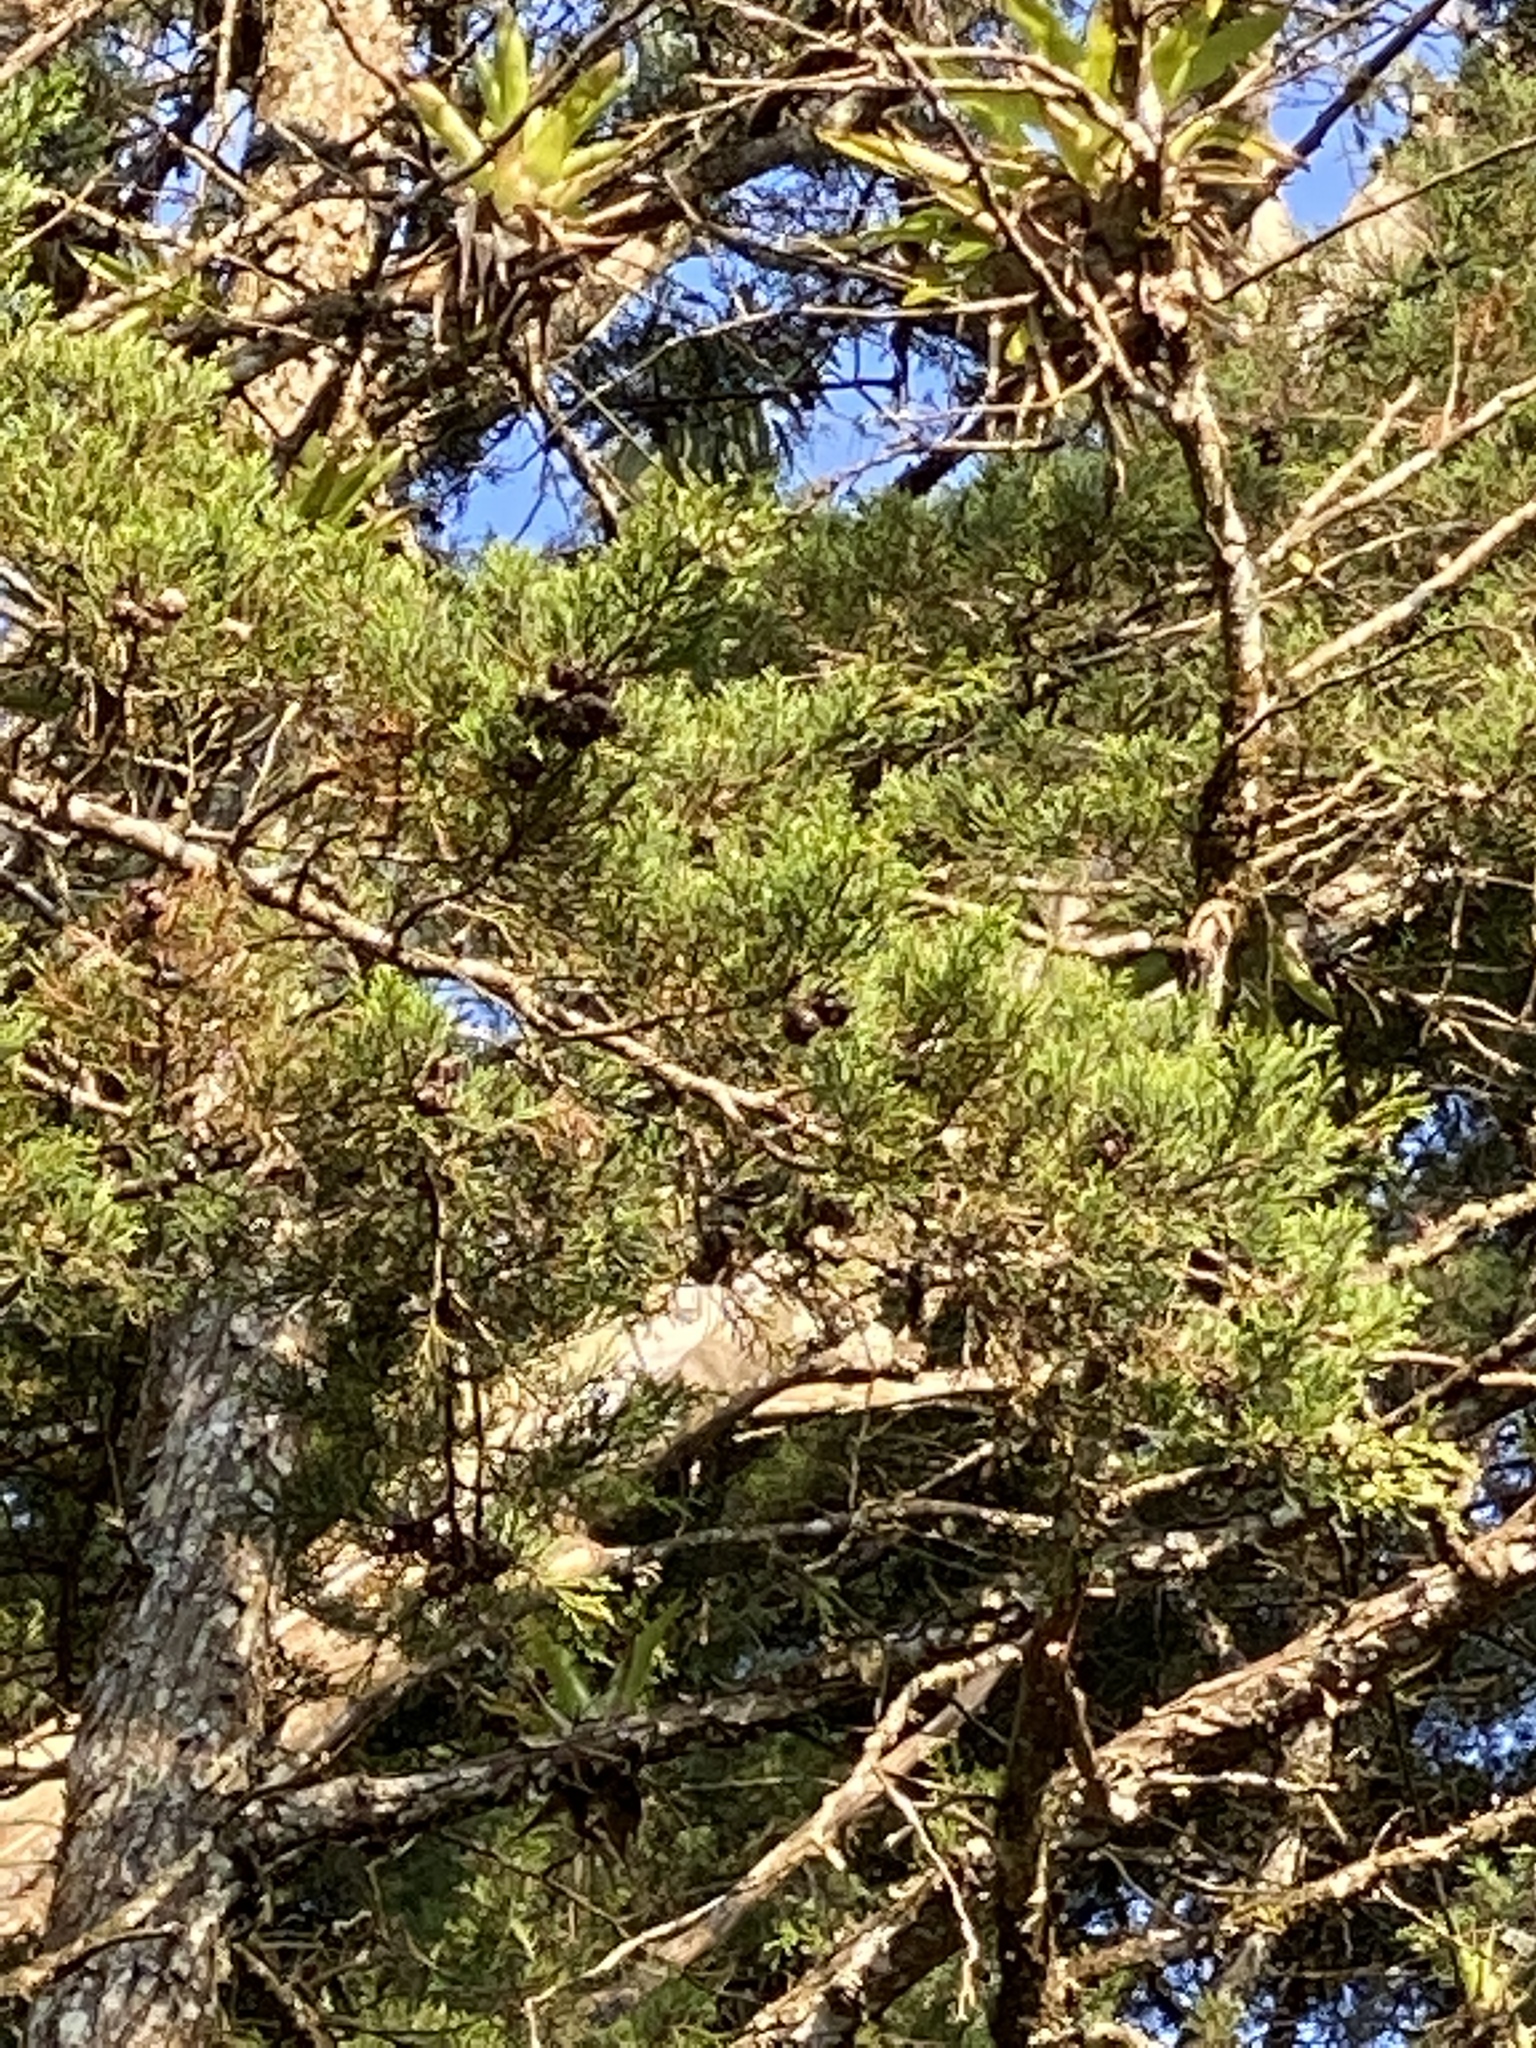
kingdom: Plantae
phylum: Tracheophyta
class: Pinopsida
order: Pinales
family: Cupressaceae
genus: Cupressus
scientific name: Cupressus lusitanica
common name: Mexican cypress
